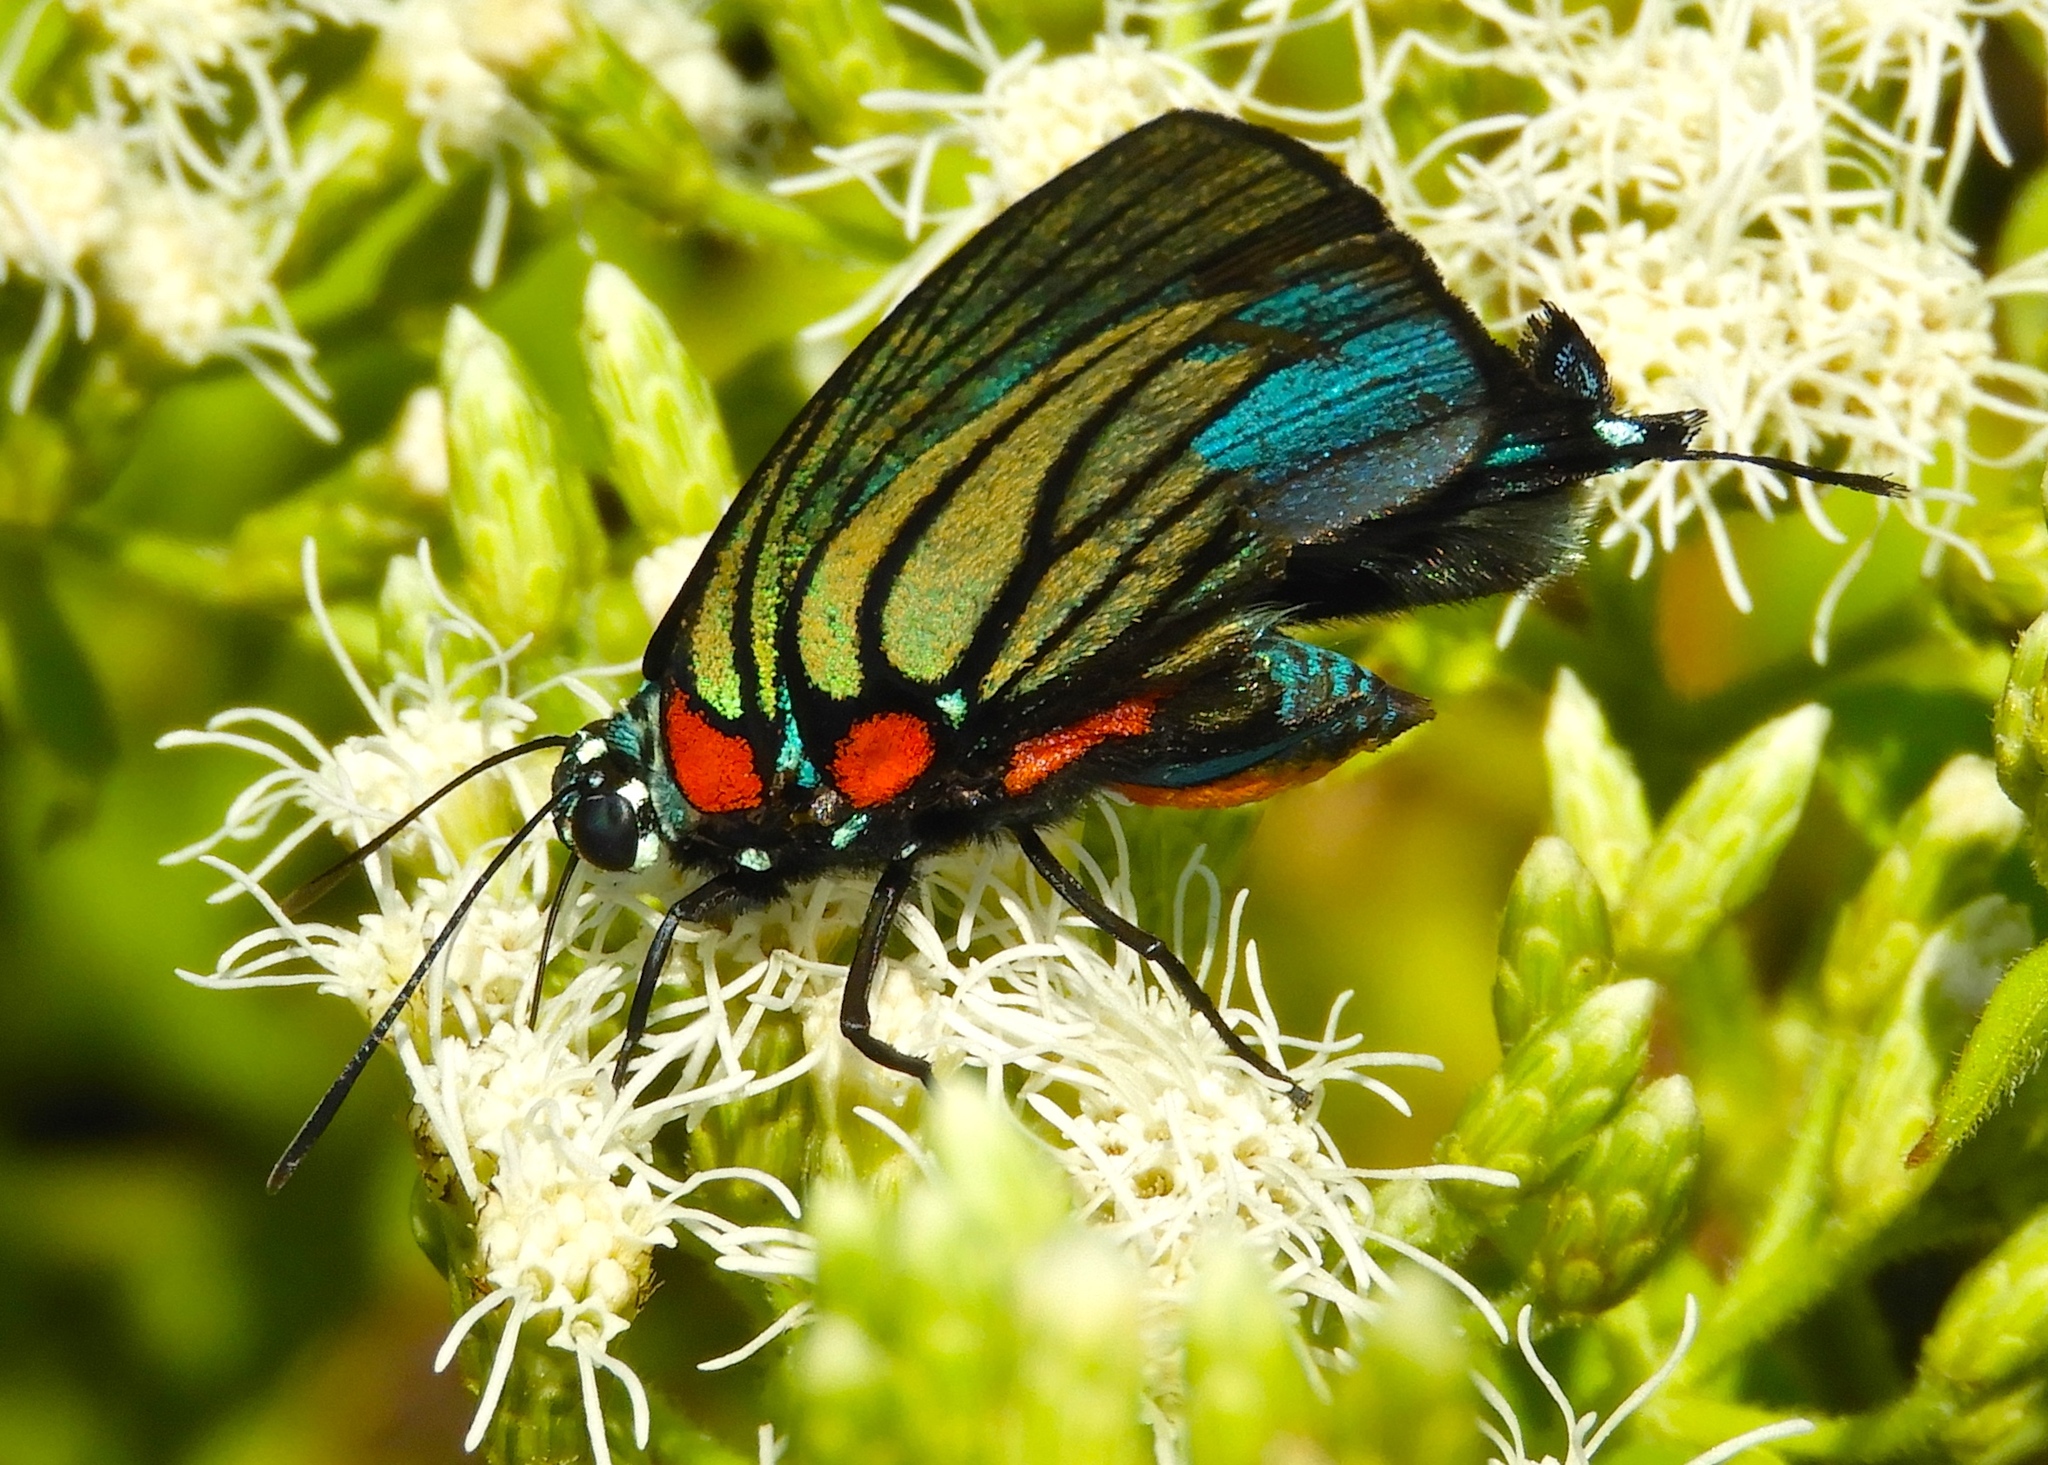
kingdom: Animalia
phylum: Arthropoda
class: Insecta
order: Lepidoptera
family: Lycaenidae
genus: Thecla
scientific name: Thecla polybe
